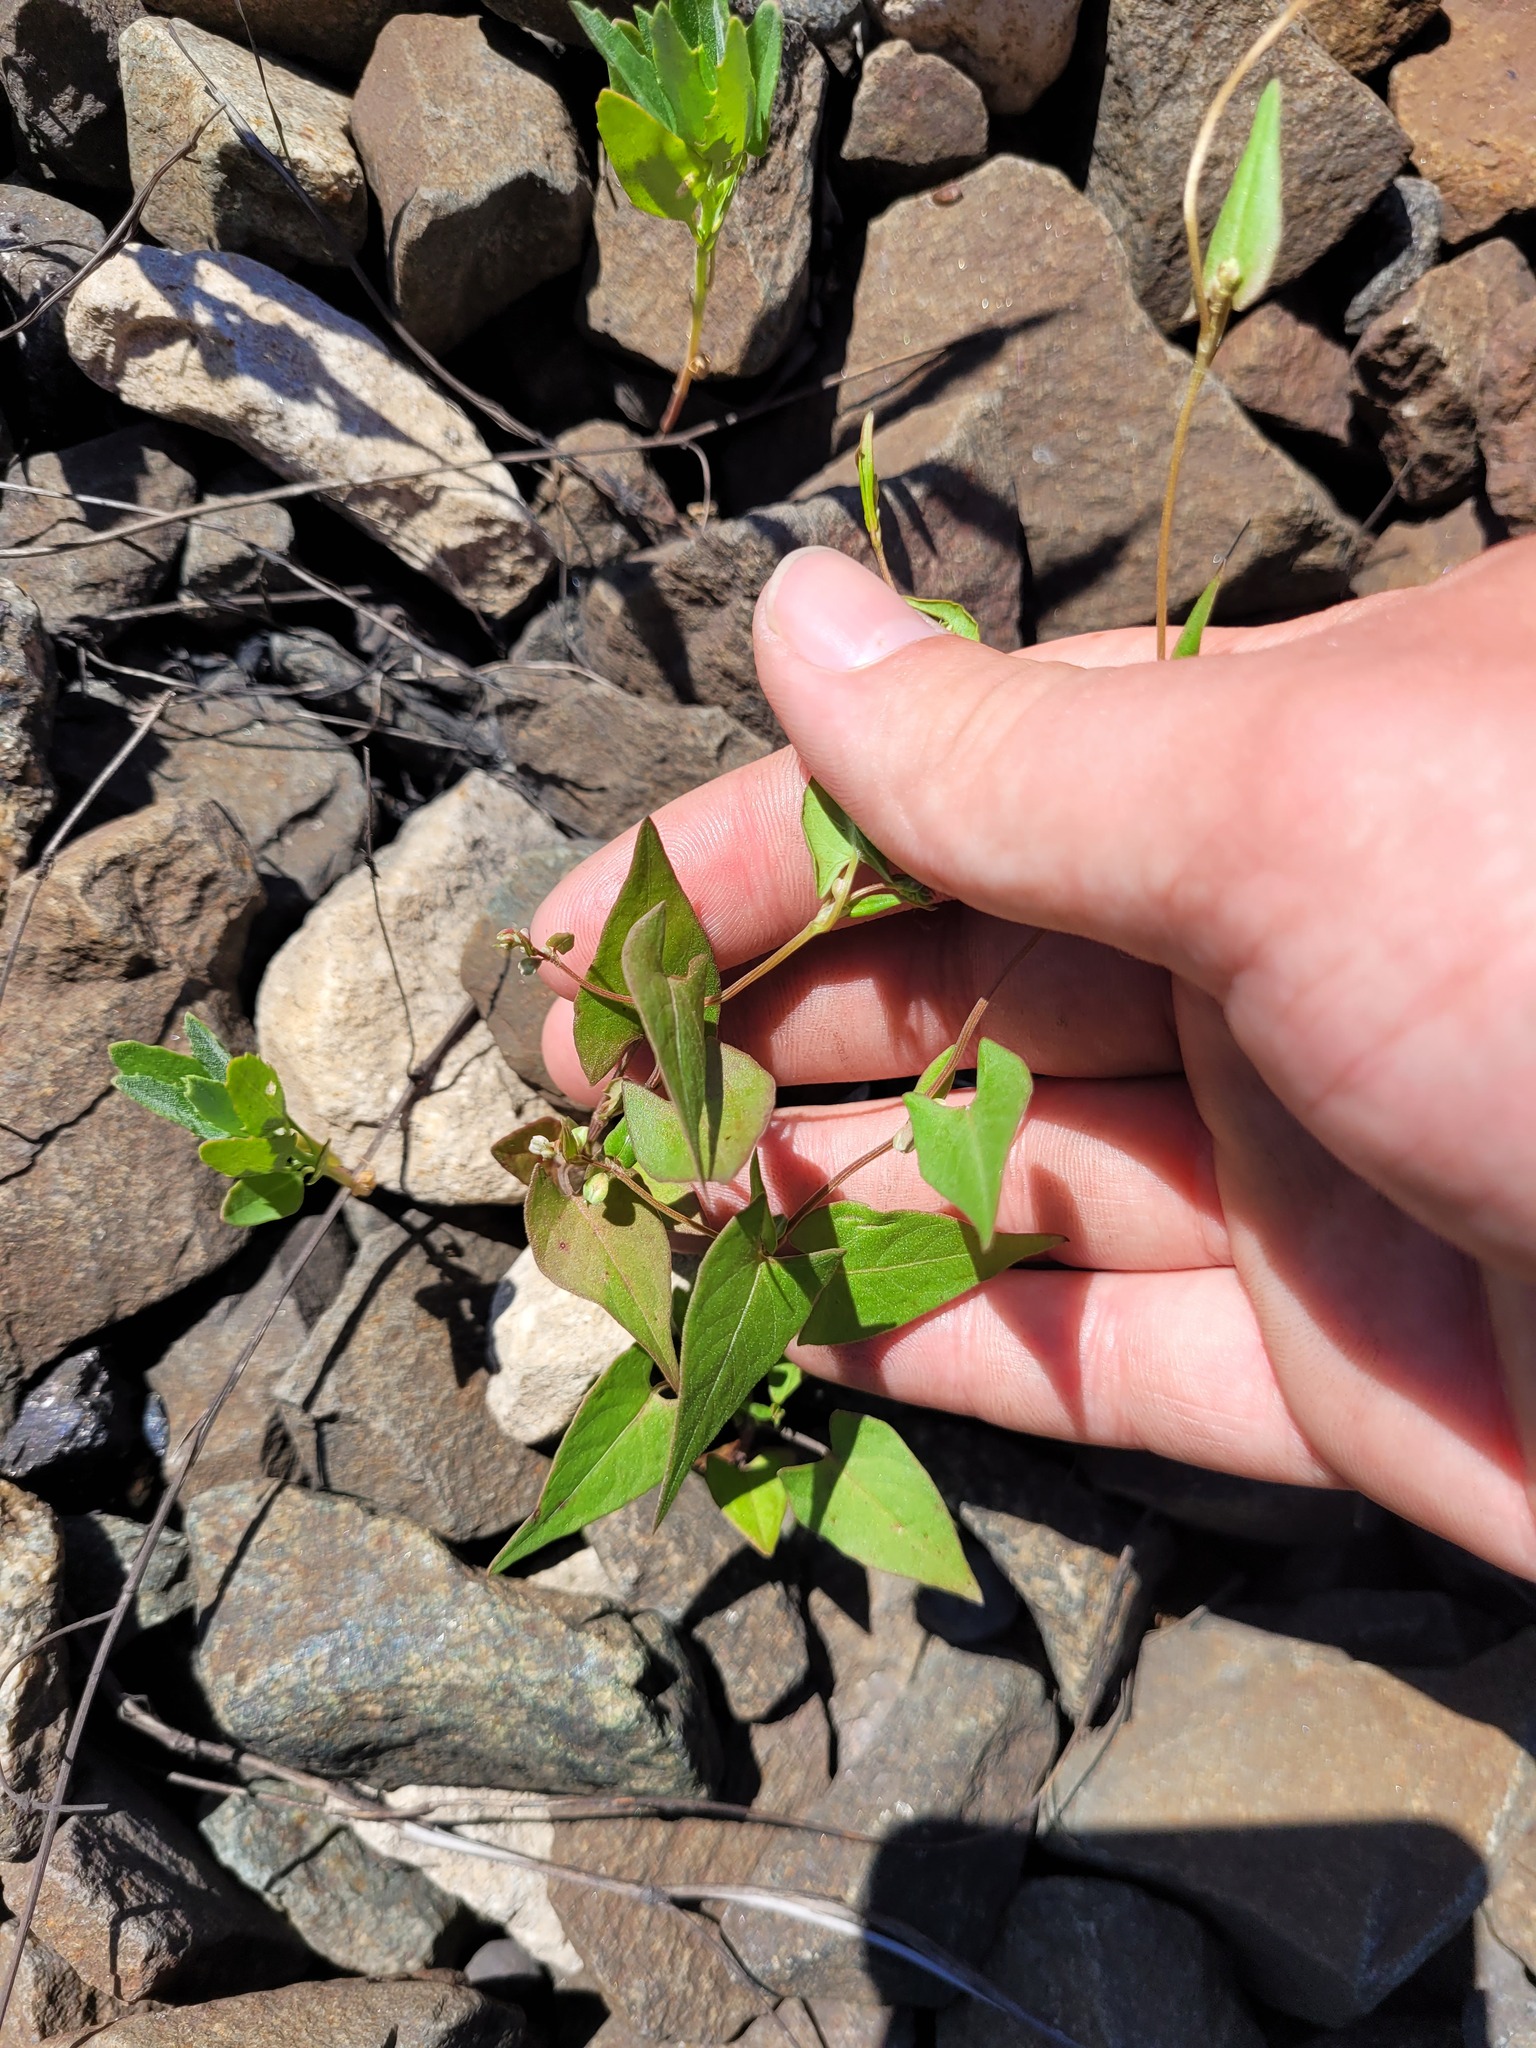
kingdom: Plantae
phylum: Tracheophyta
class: Magnoliopsida
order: Caryophyllales
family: Polygonaceae
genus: Fallopia
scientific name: Fallopia convolvulus
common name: Black bindweed
